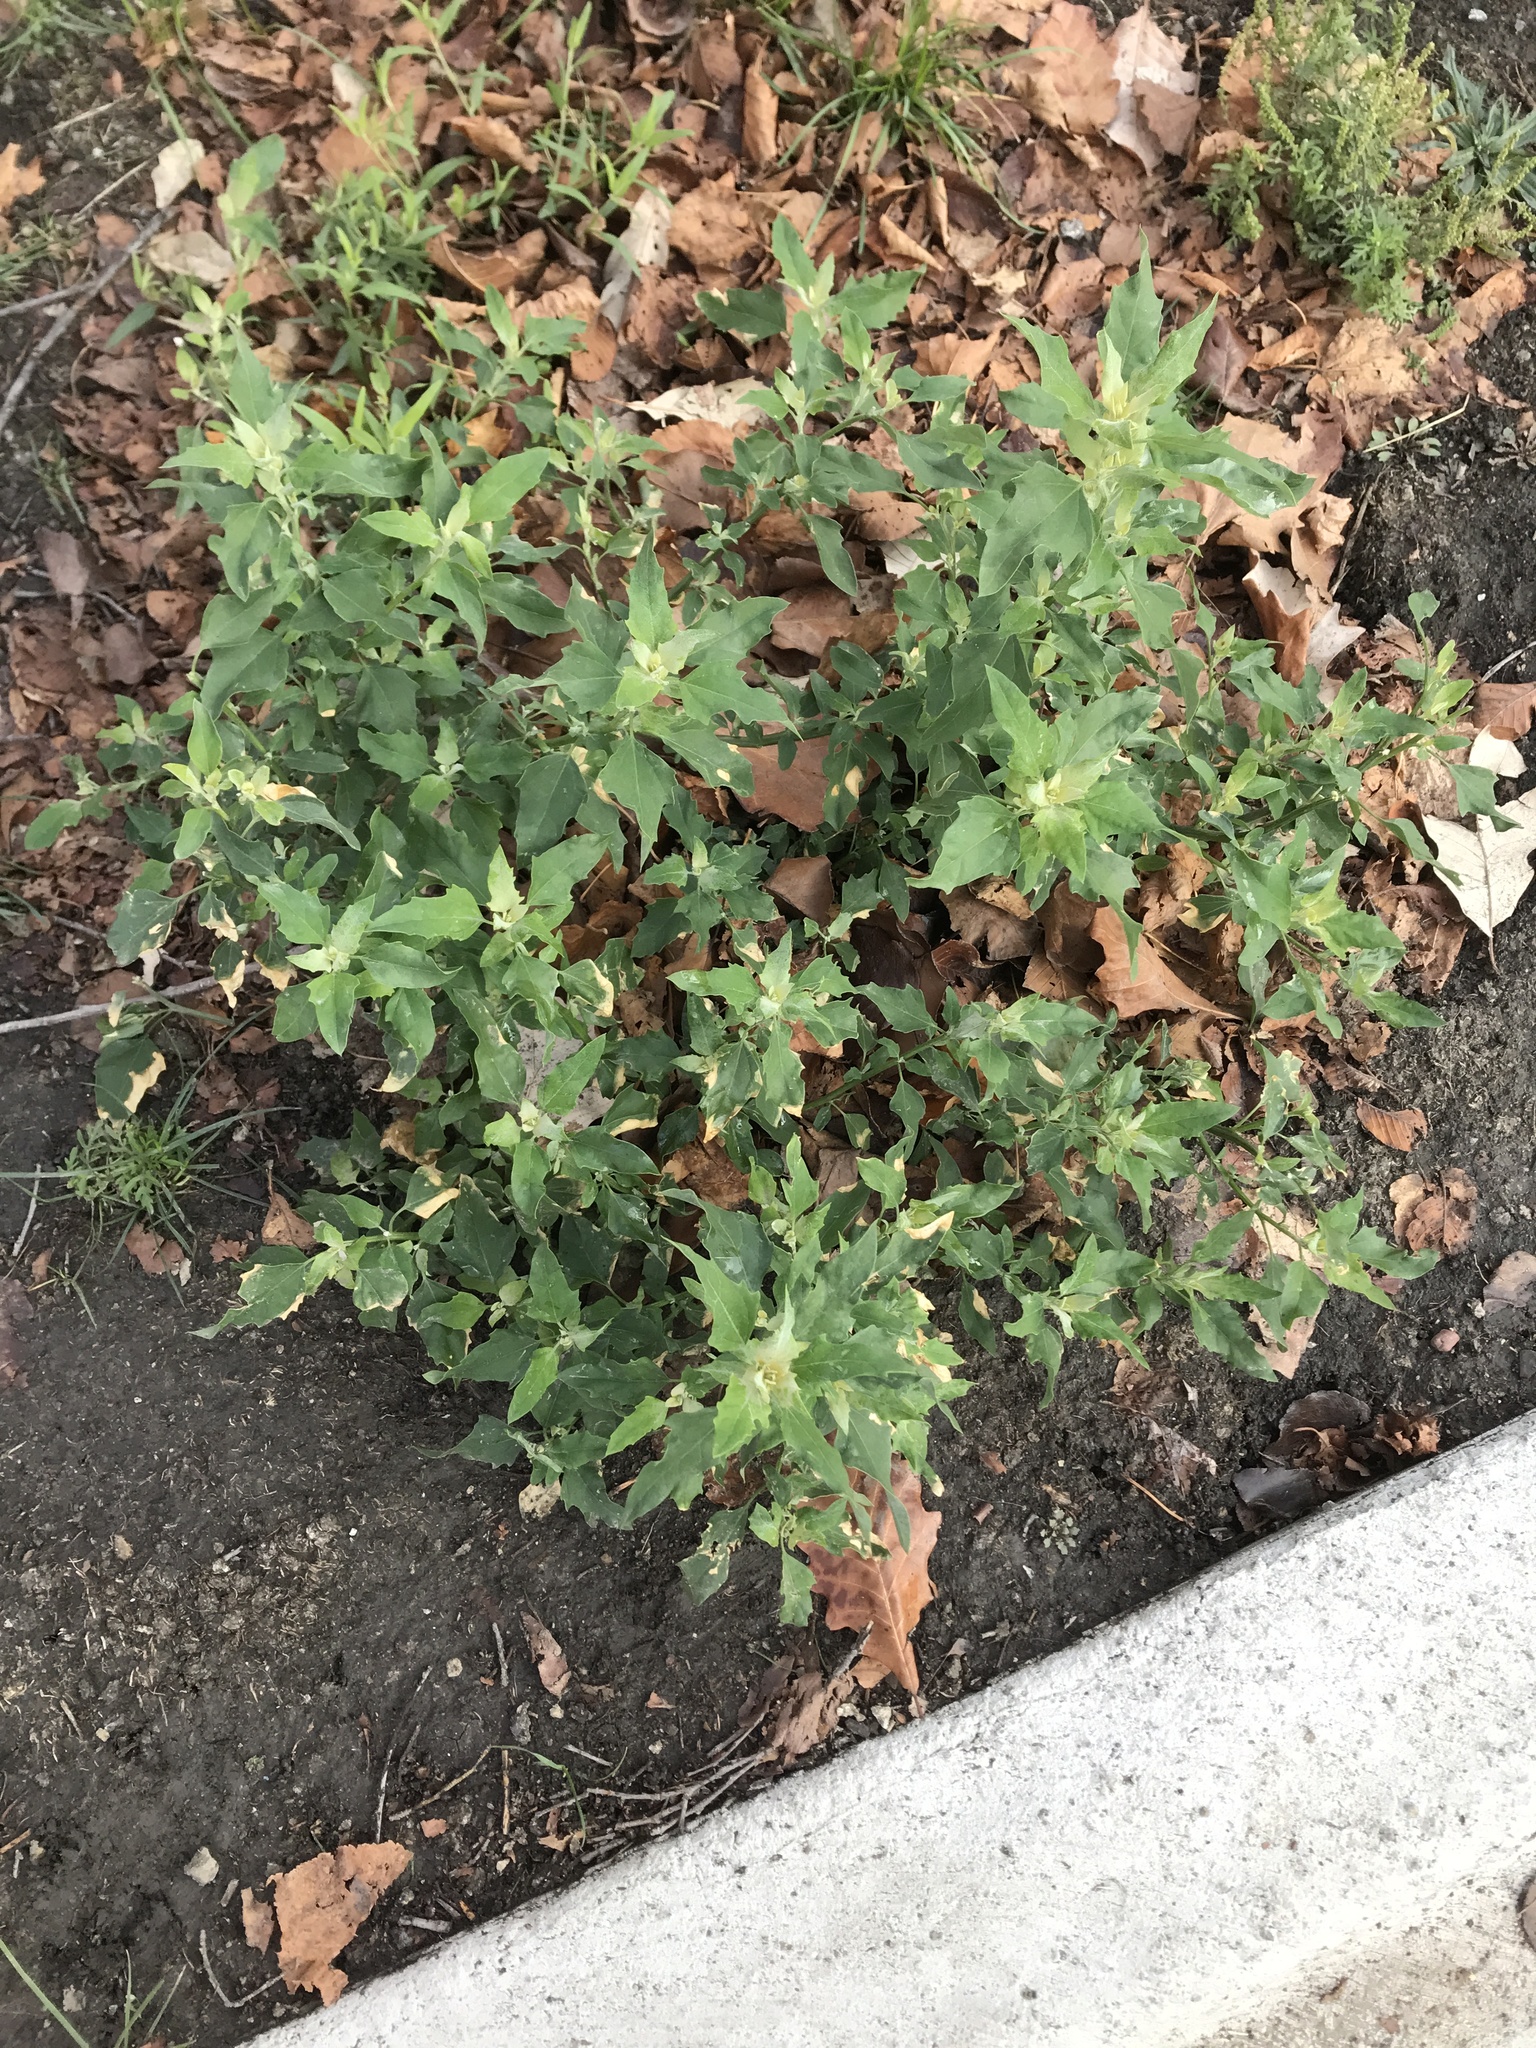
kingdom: Plantae
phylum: Tracheophyta
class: Magnoliopsida
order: Caryophyllales
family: Amaranthaceae
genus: Chenopodium
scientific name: Chenopodium album
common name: Fat-hen
